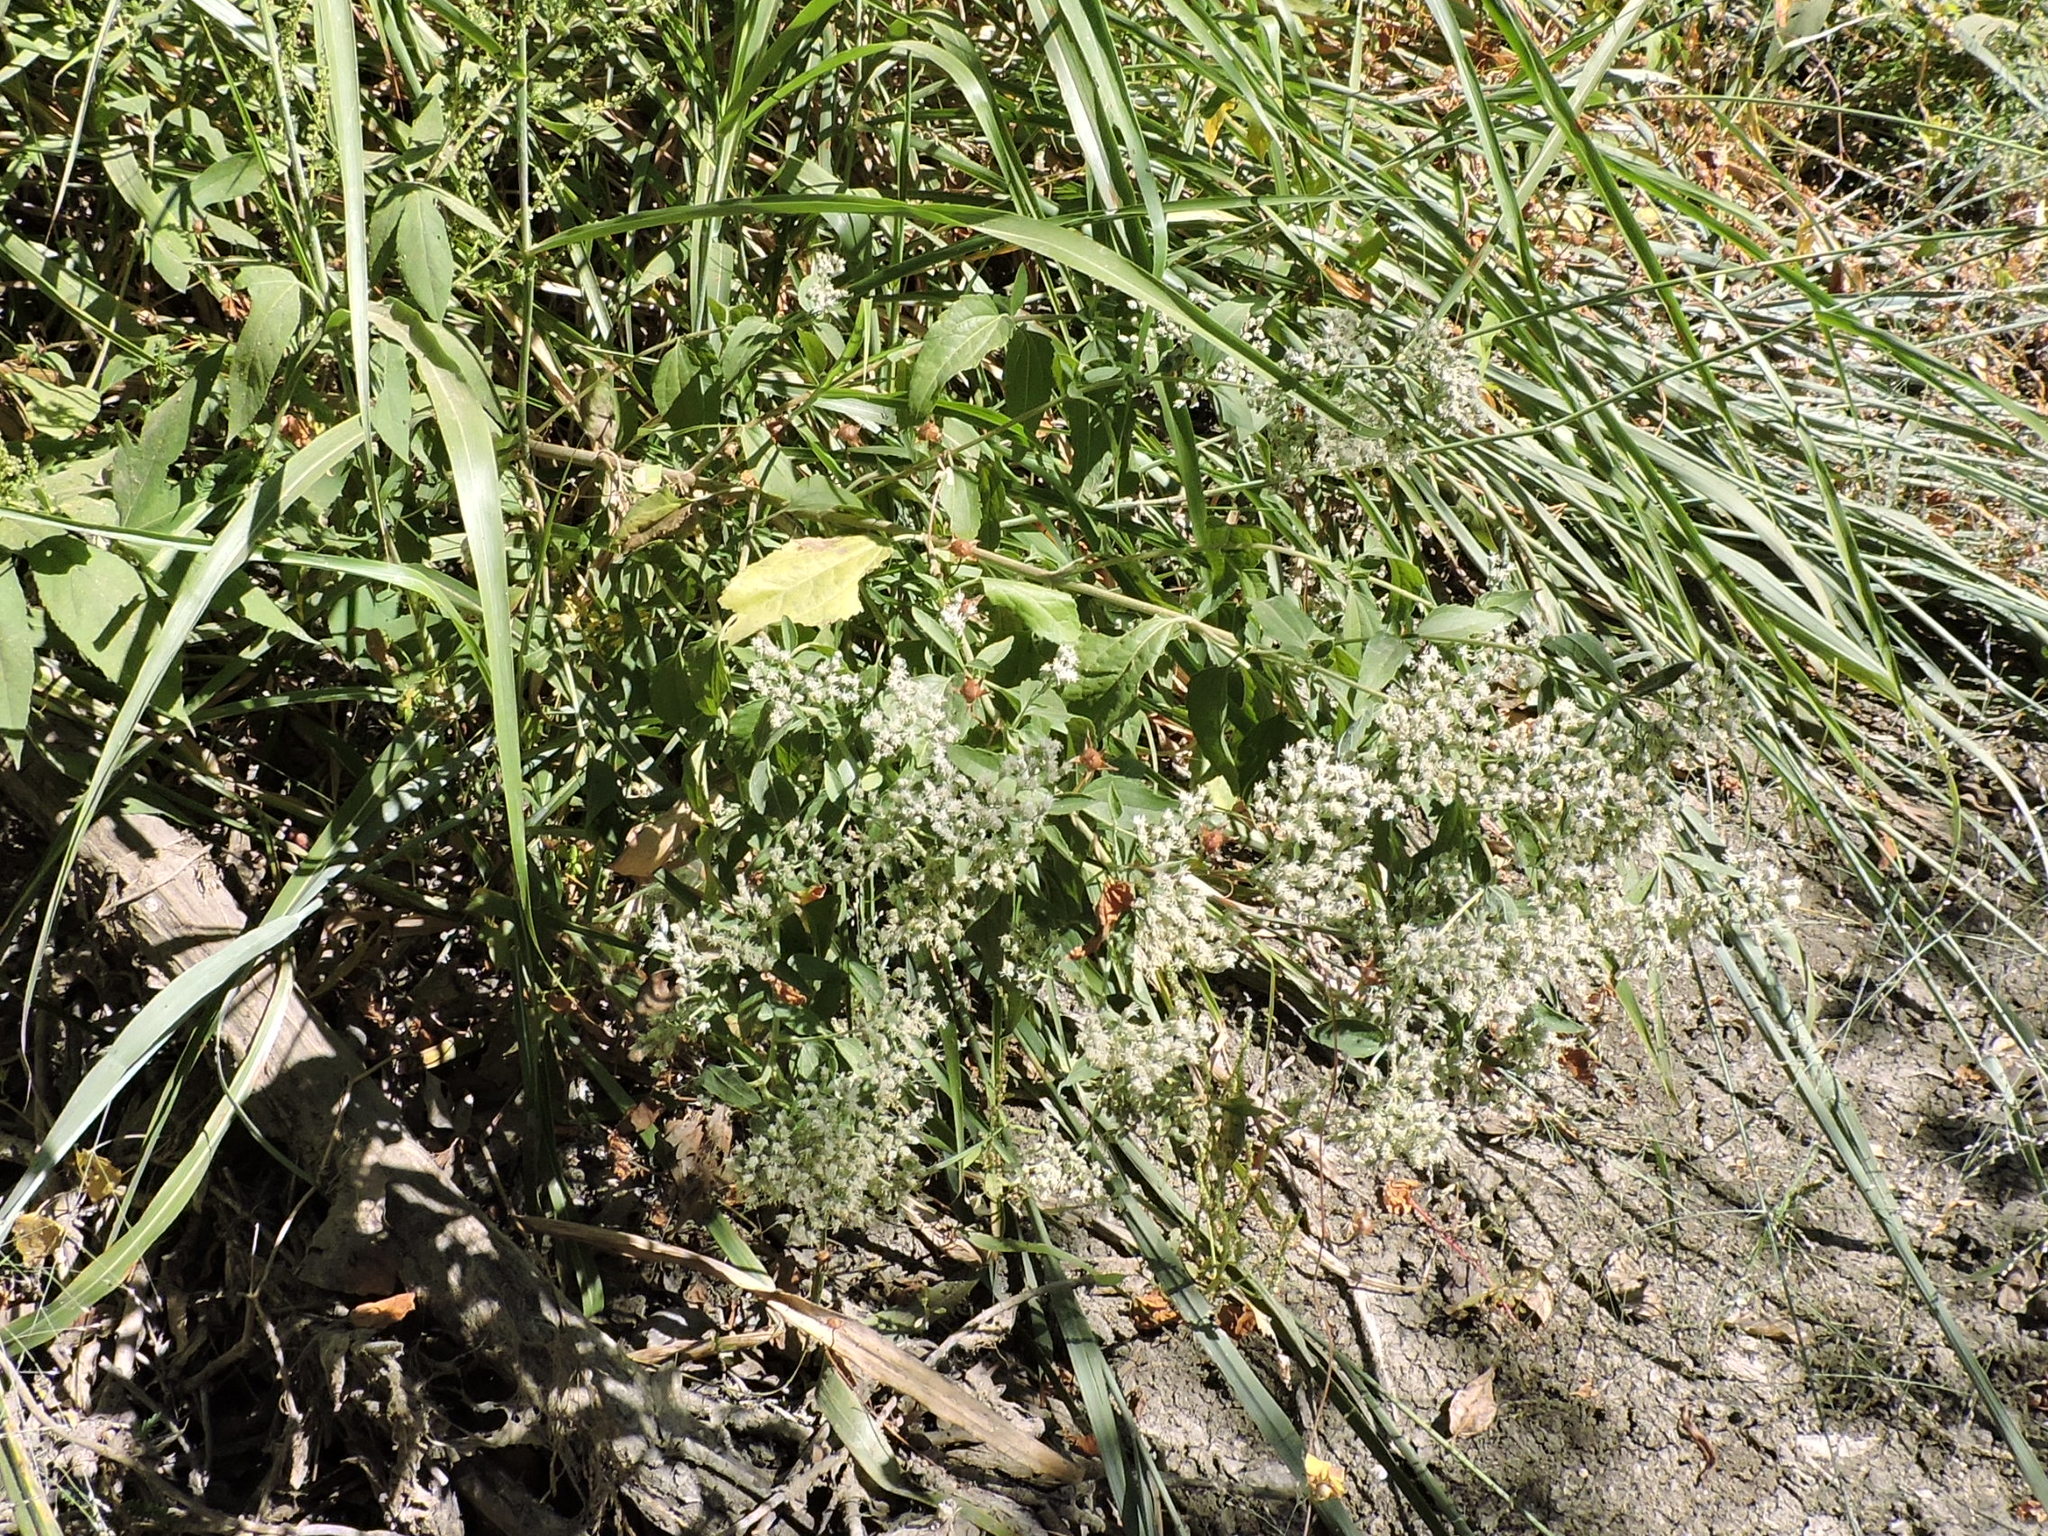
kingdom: Plantae
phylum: Tracheophyta
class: Magnoliopsida
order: Asterales
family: Asteraceae
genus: Eupatorium
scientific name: Eupatorium serotinum
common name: Late boneset
